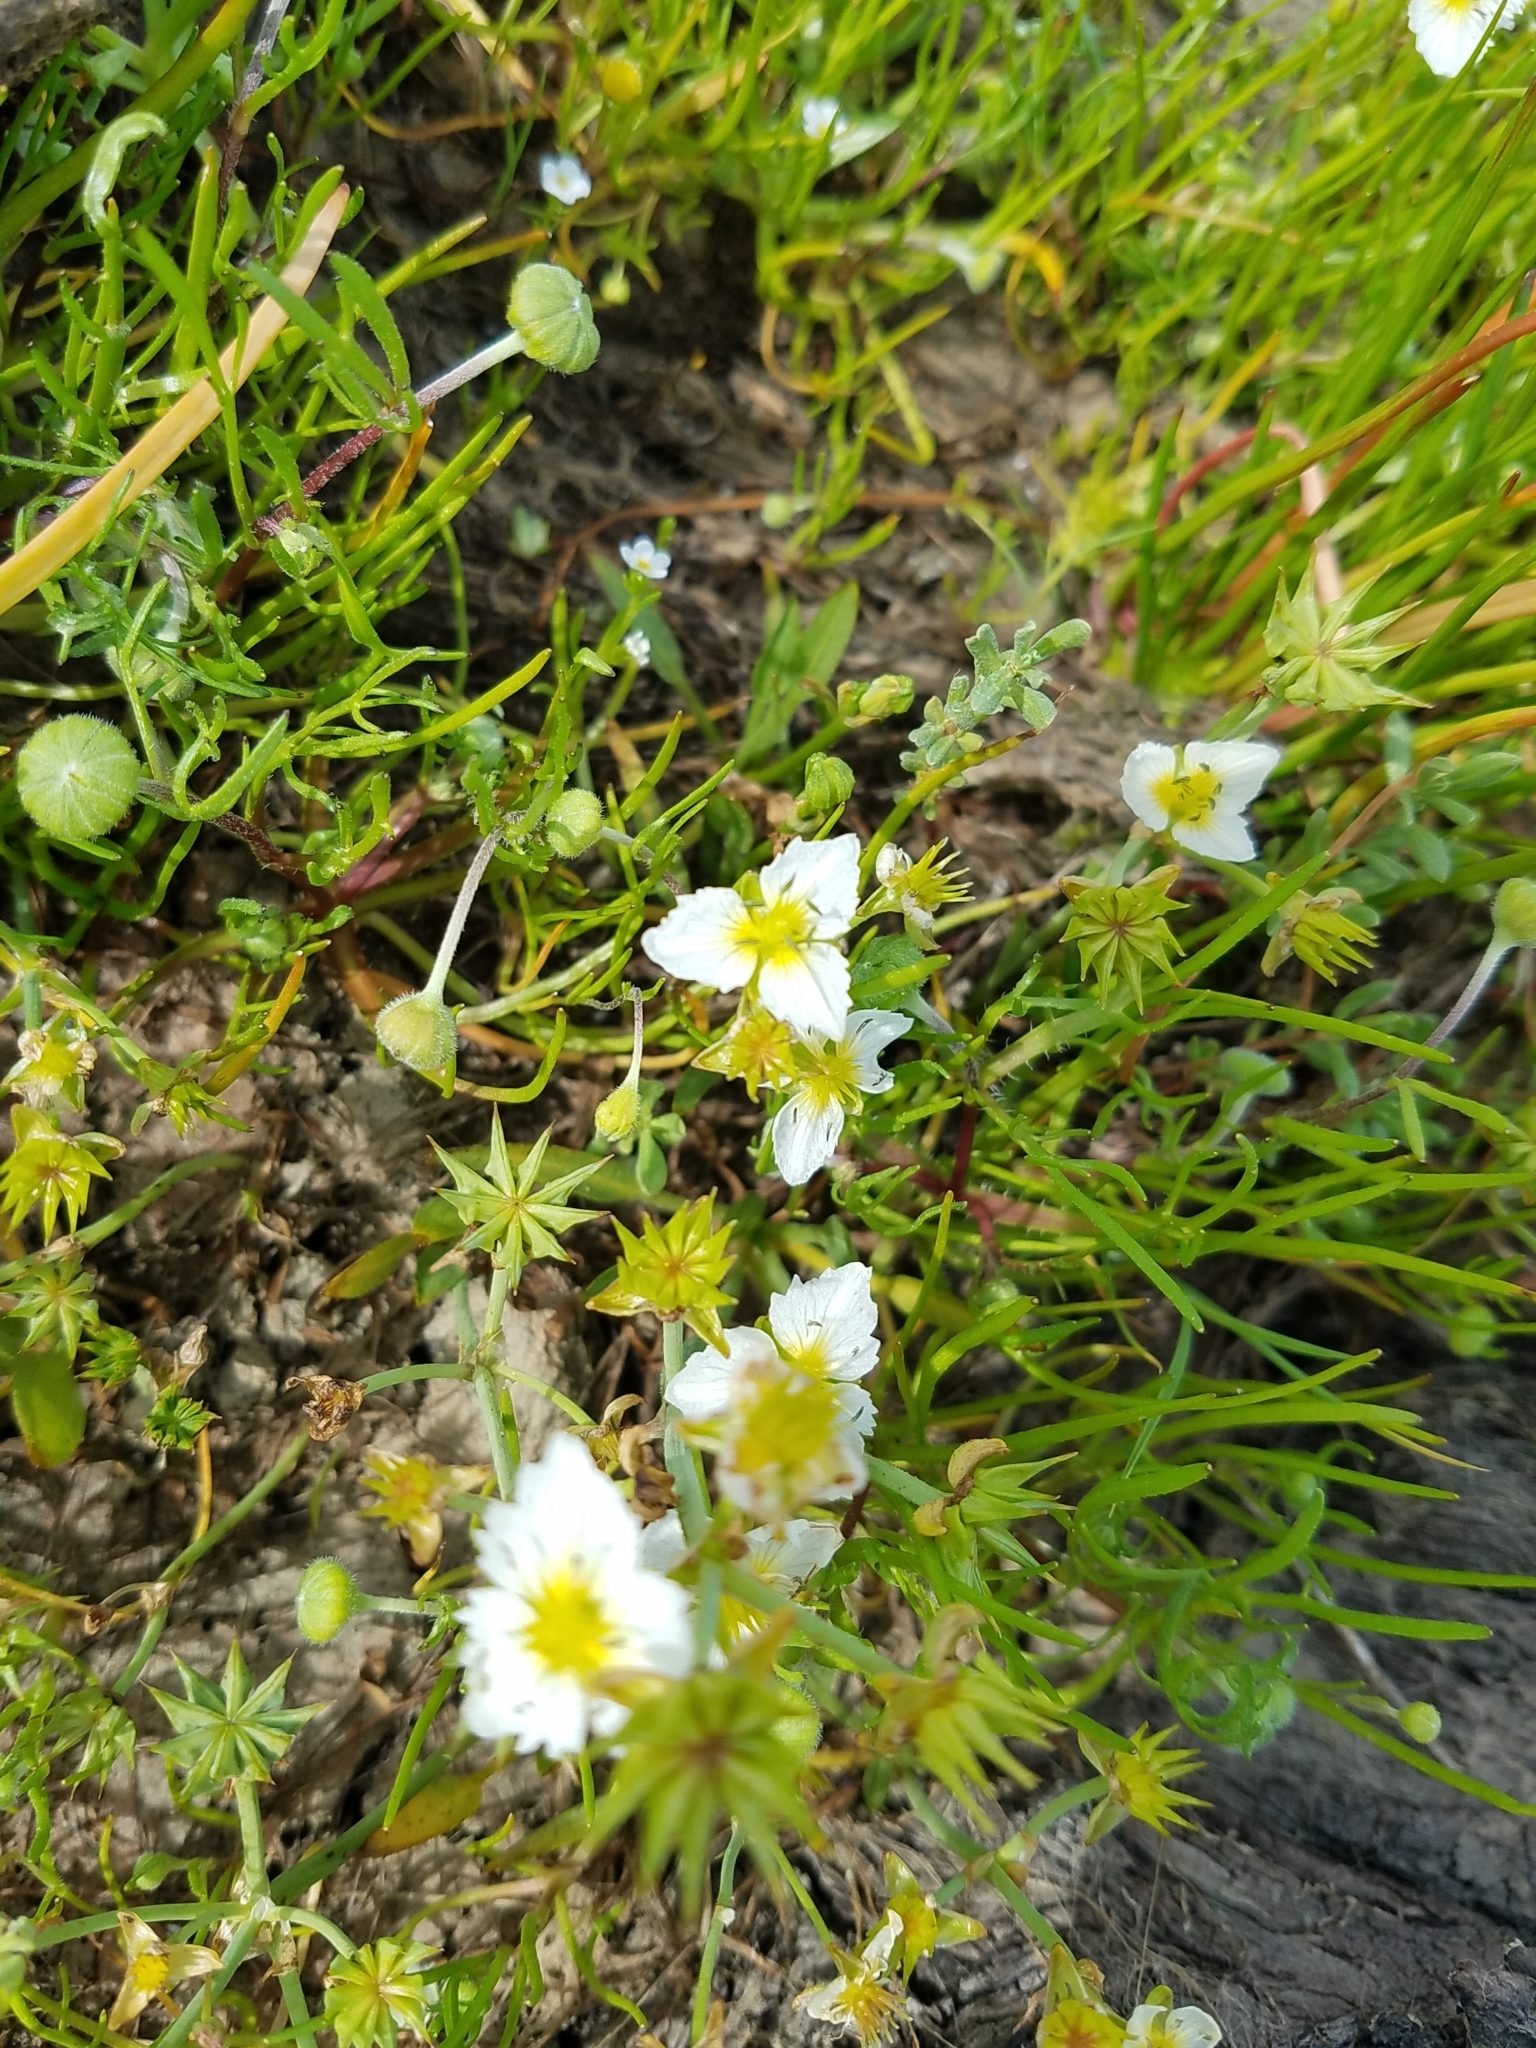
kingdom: Plantae
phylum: Tracheophyta
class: Liliopsida
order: Alismatales
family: Alismataceae
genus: Damasonium
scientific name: Damasonium californicum
